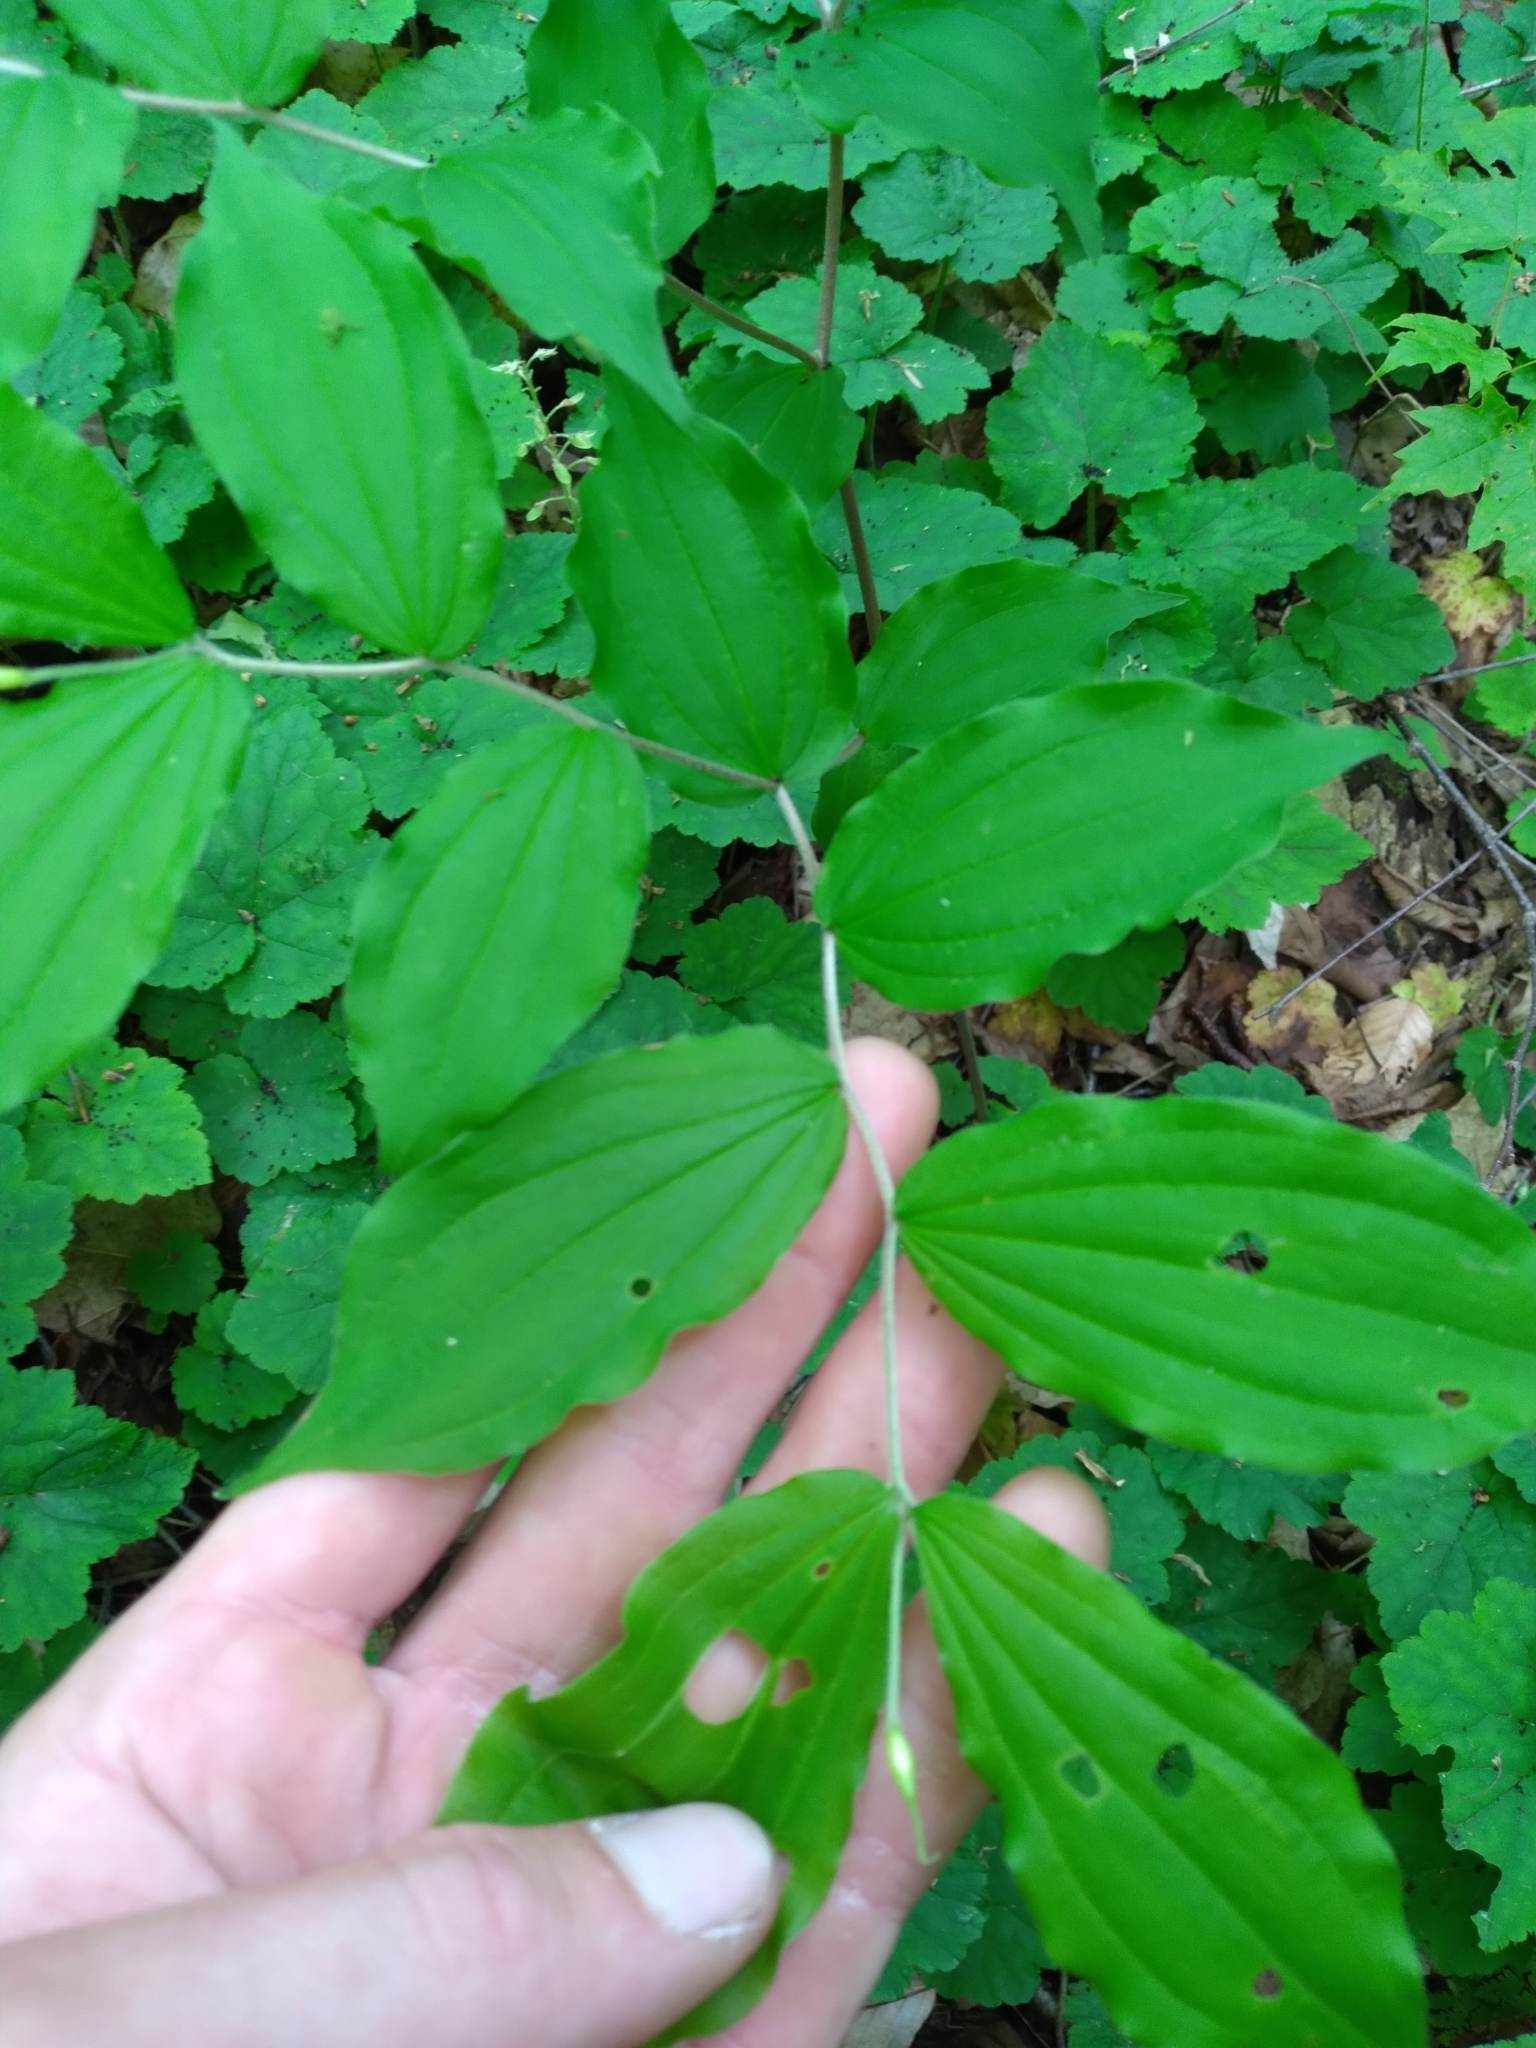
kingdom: Plantae
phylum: Tracheophyta
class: Liliopsida
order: Liliales
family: Liliaceae
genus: Prosartes
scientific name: Prosartes lanuginosa
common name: Hairy mandarin
